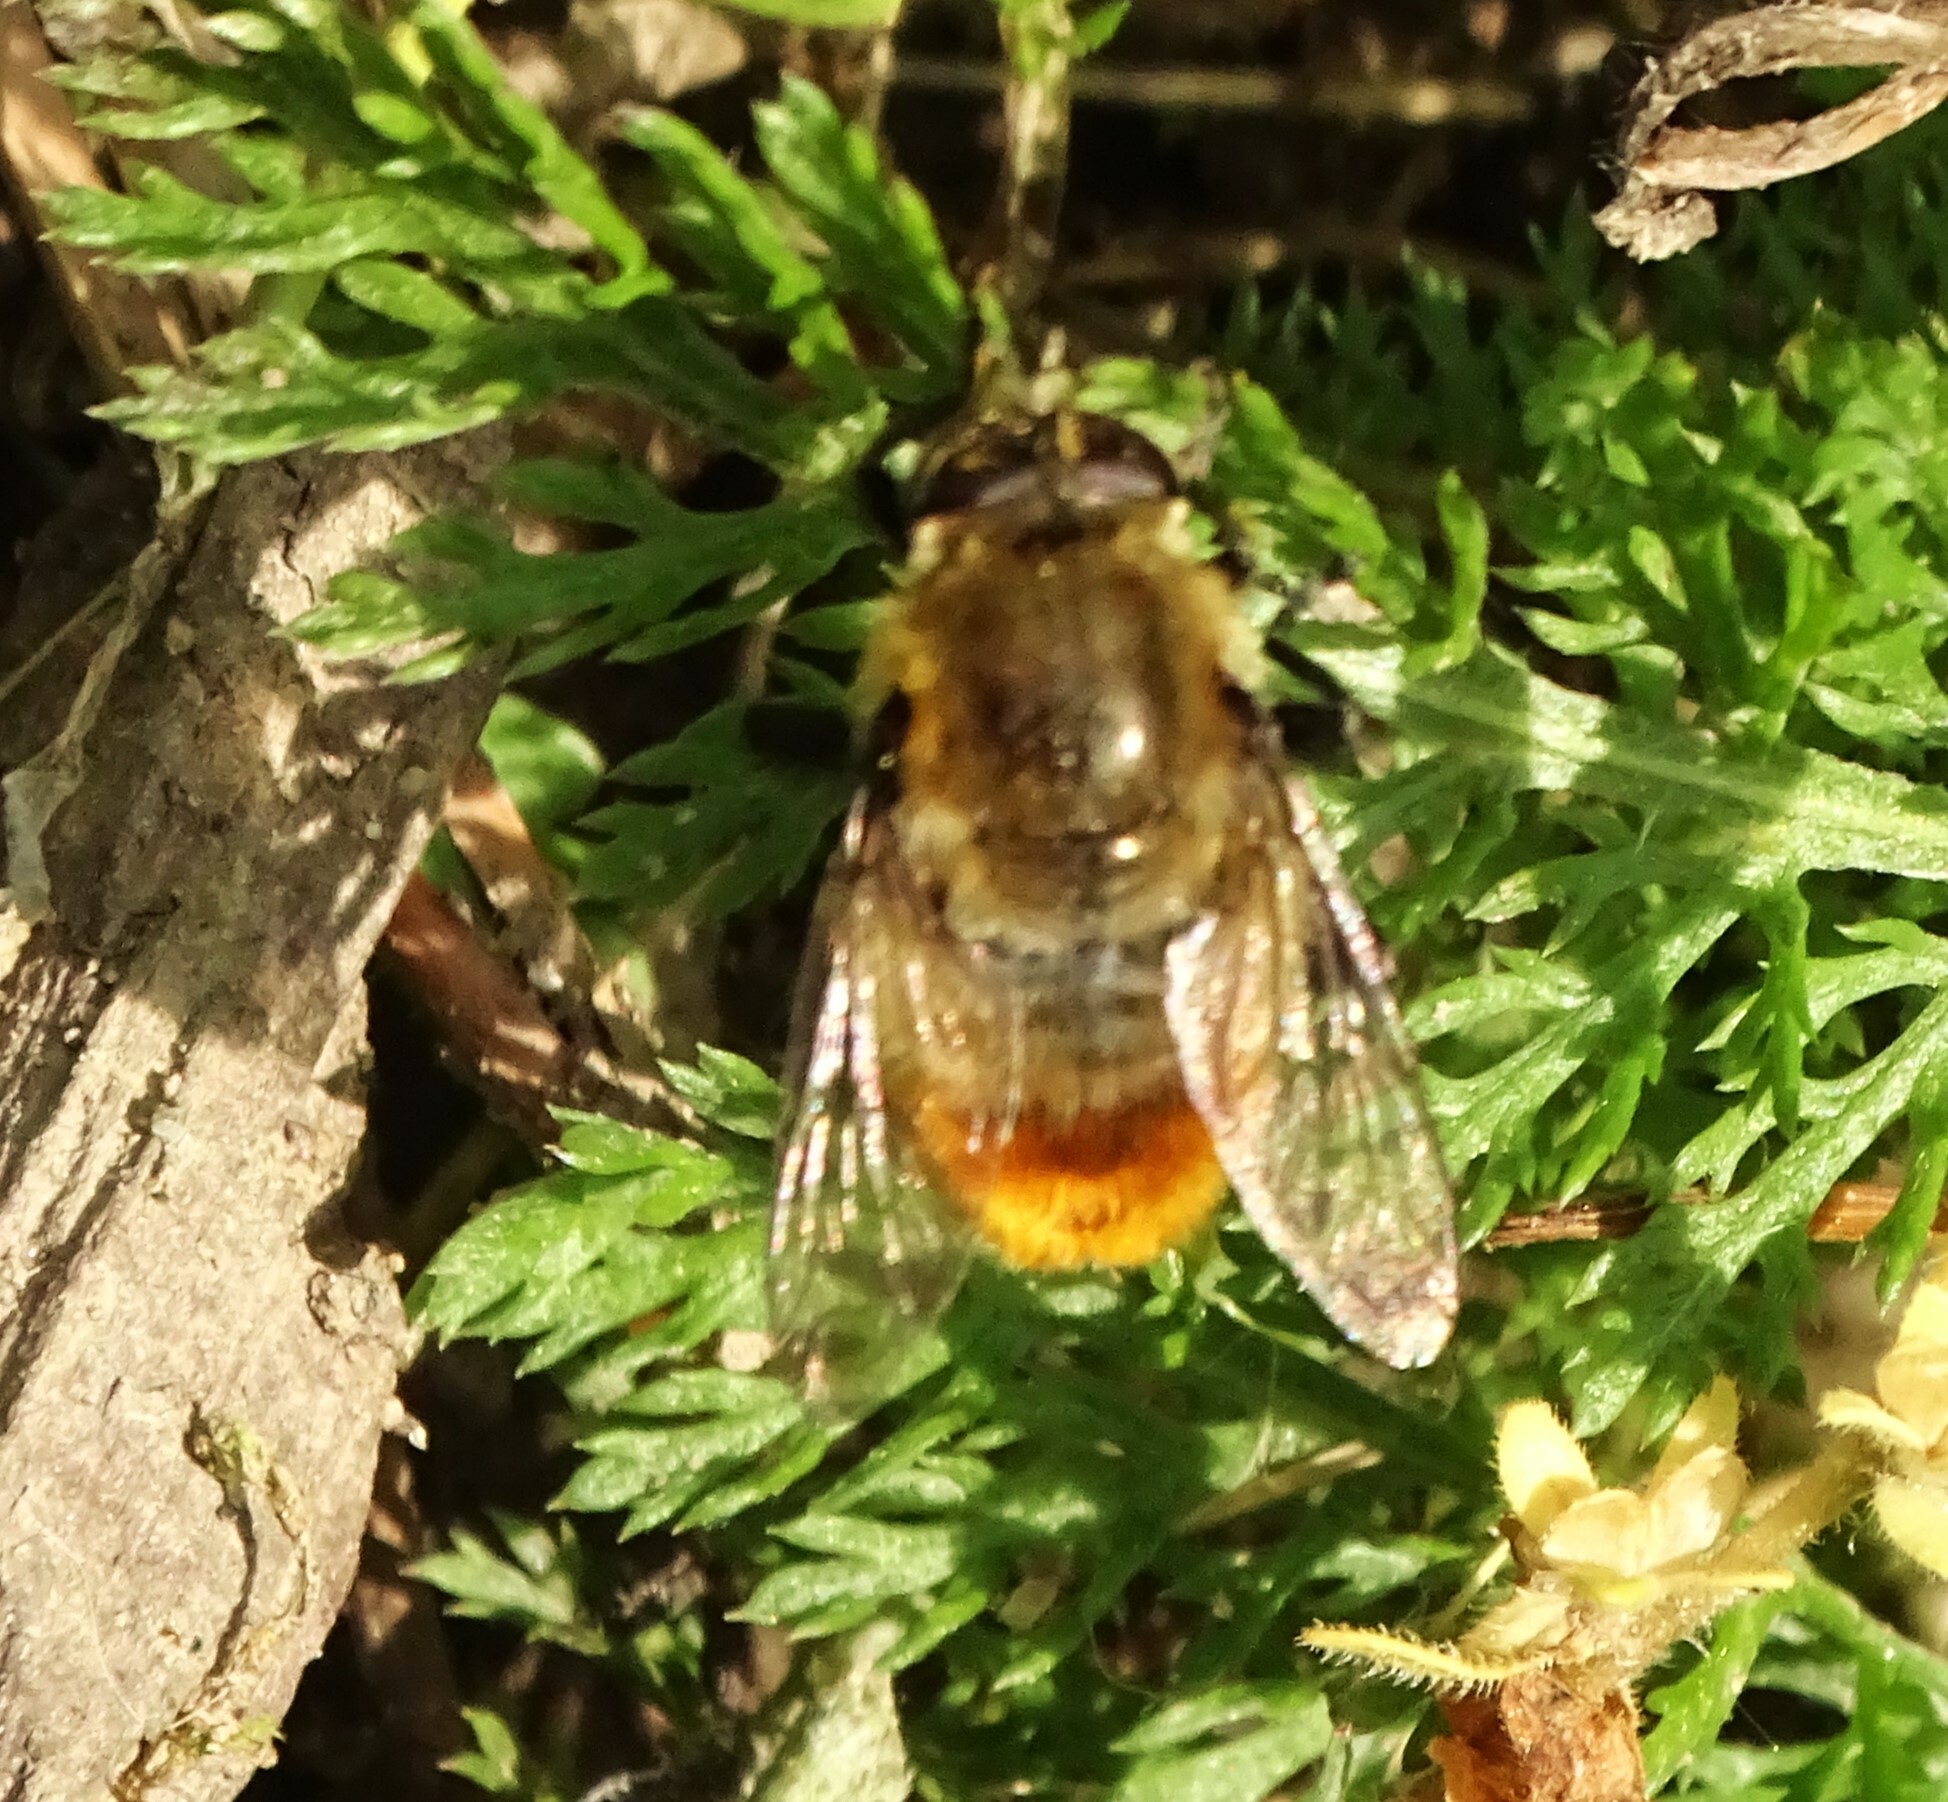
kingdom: Animalia
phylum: Arthropoda
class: Insecta
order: Diptera
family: Syrphidae
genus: Merodon
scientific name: Merodon equestris
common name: Greater bulb-fly
